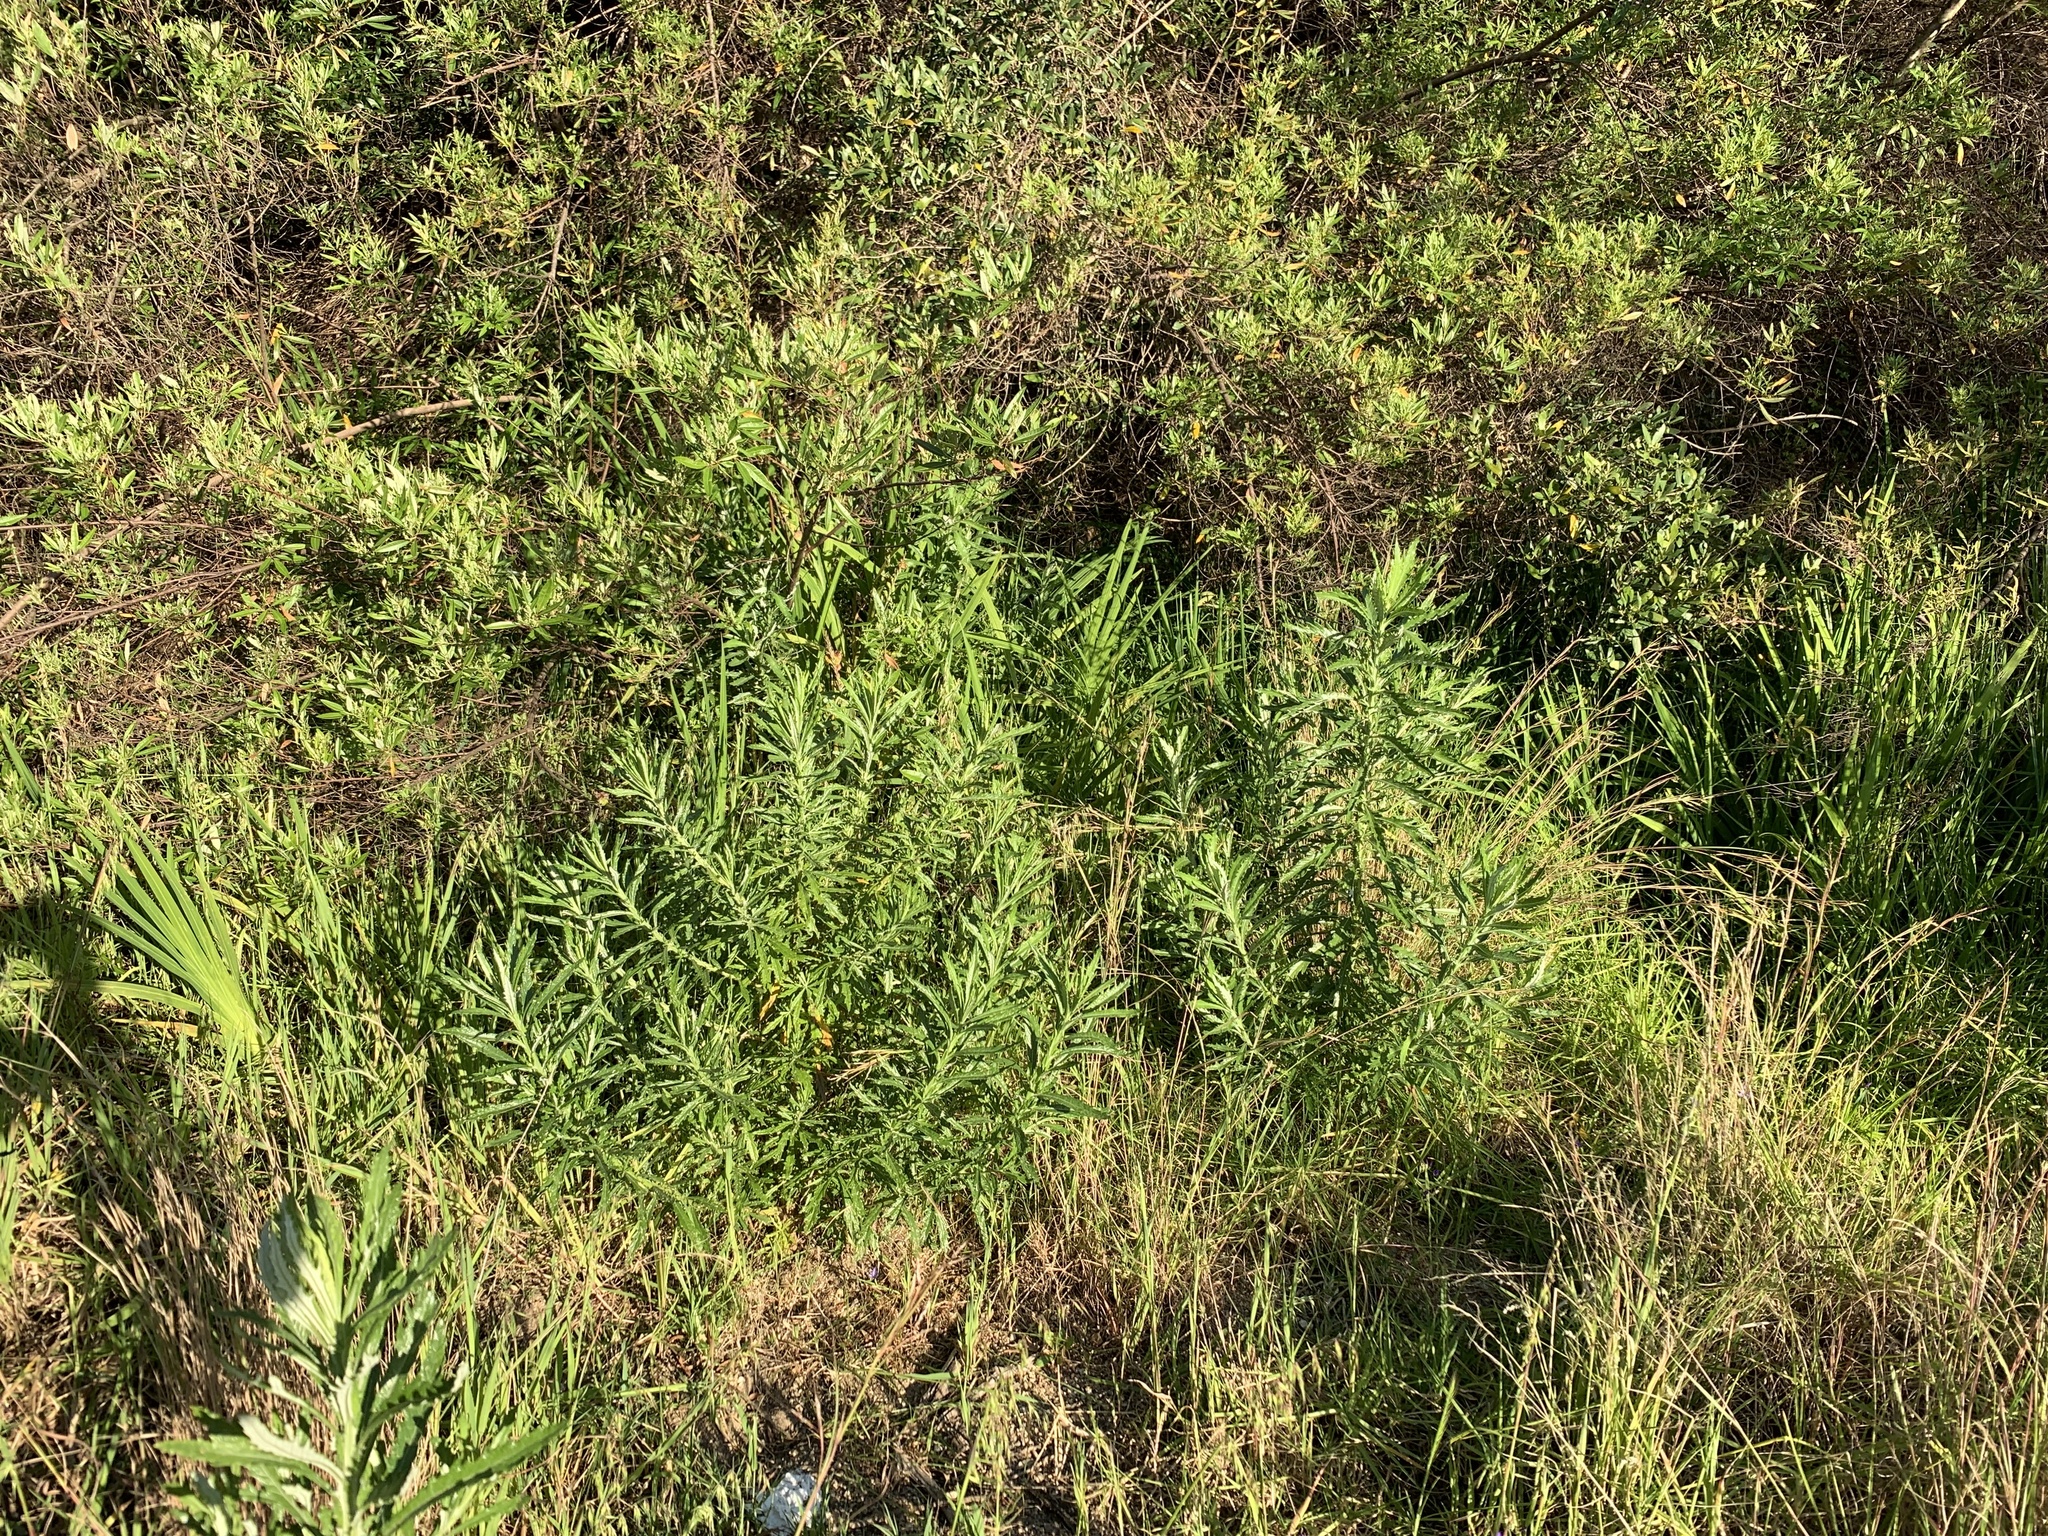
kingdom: Plantae
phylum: Tracheophyta
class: Magnoliopsida
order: Asterales
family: Asteraceae
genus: Senecio
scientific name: Senecio pterophorus
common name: Shoddy ragwort
